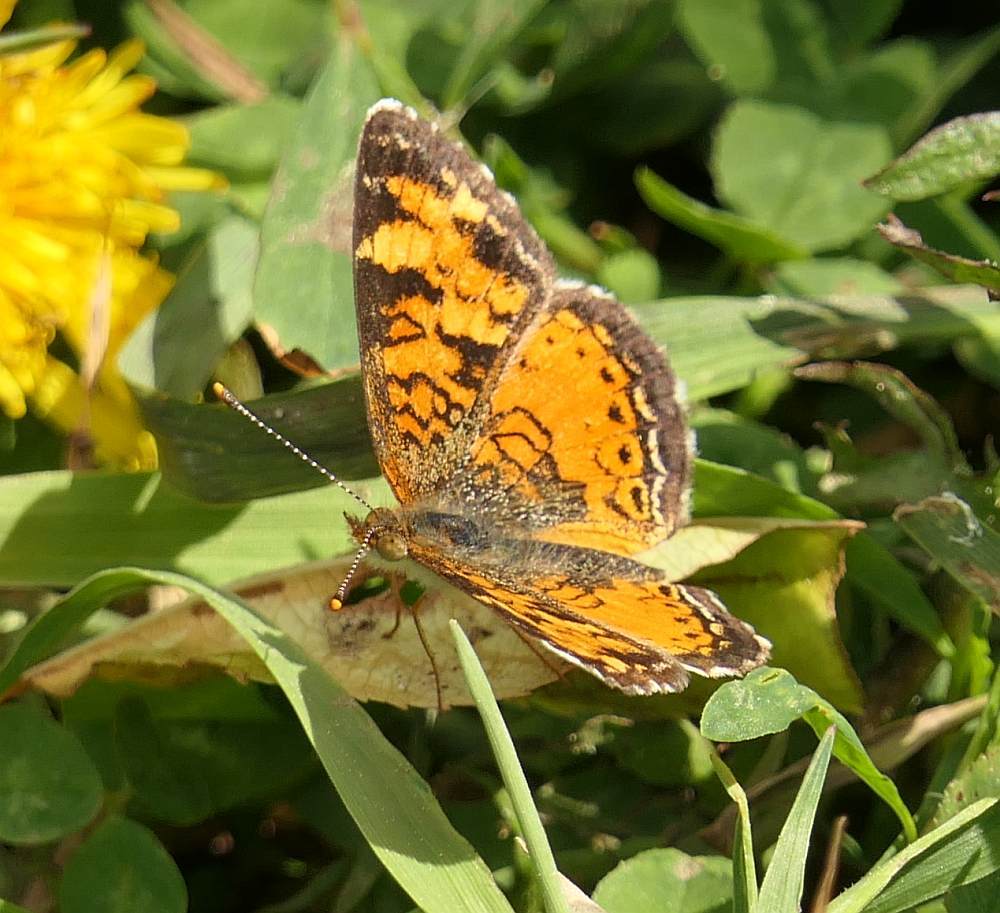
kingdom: Animalia
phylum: Arthropoda
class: Insecta
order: Lepidoptera
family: Nymphalidae
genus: Phyciodes
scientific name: Phyciodes tharos
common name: Pearl crescent
